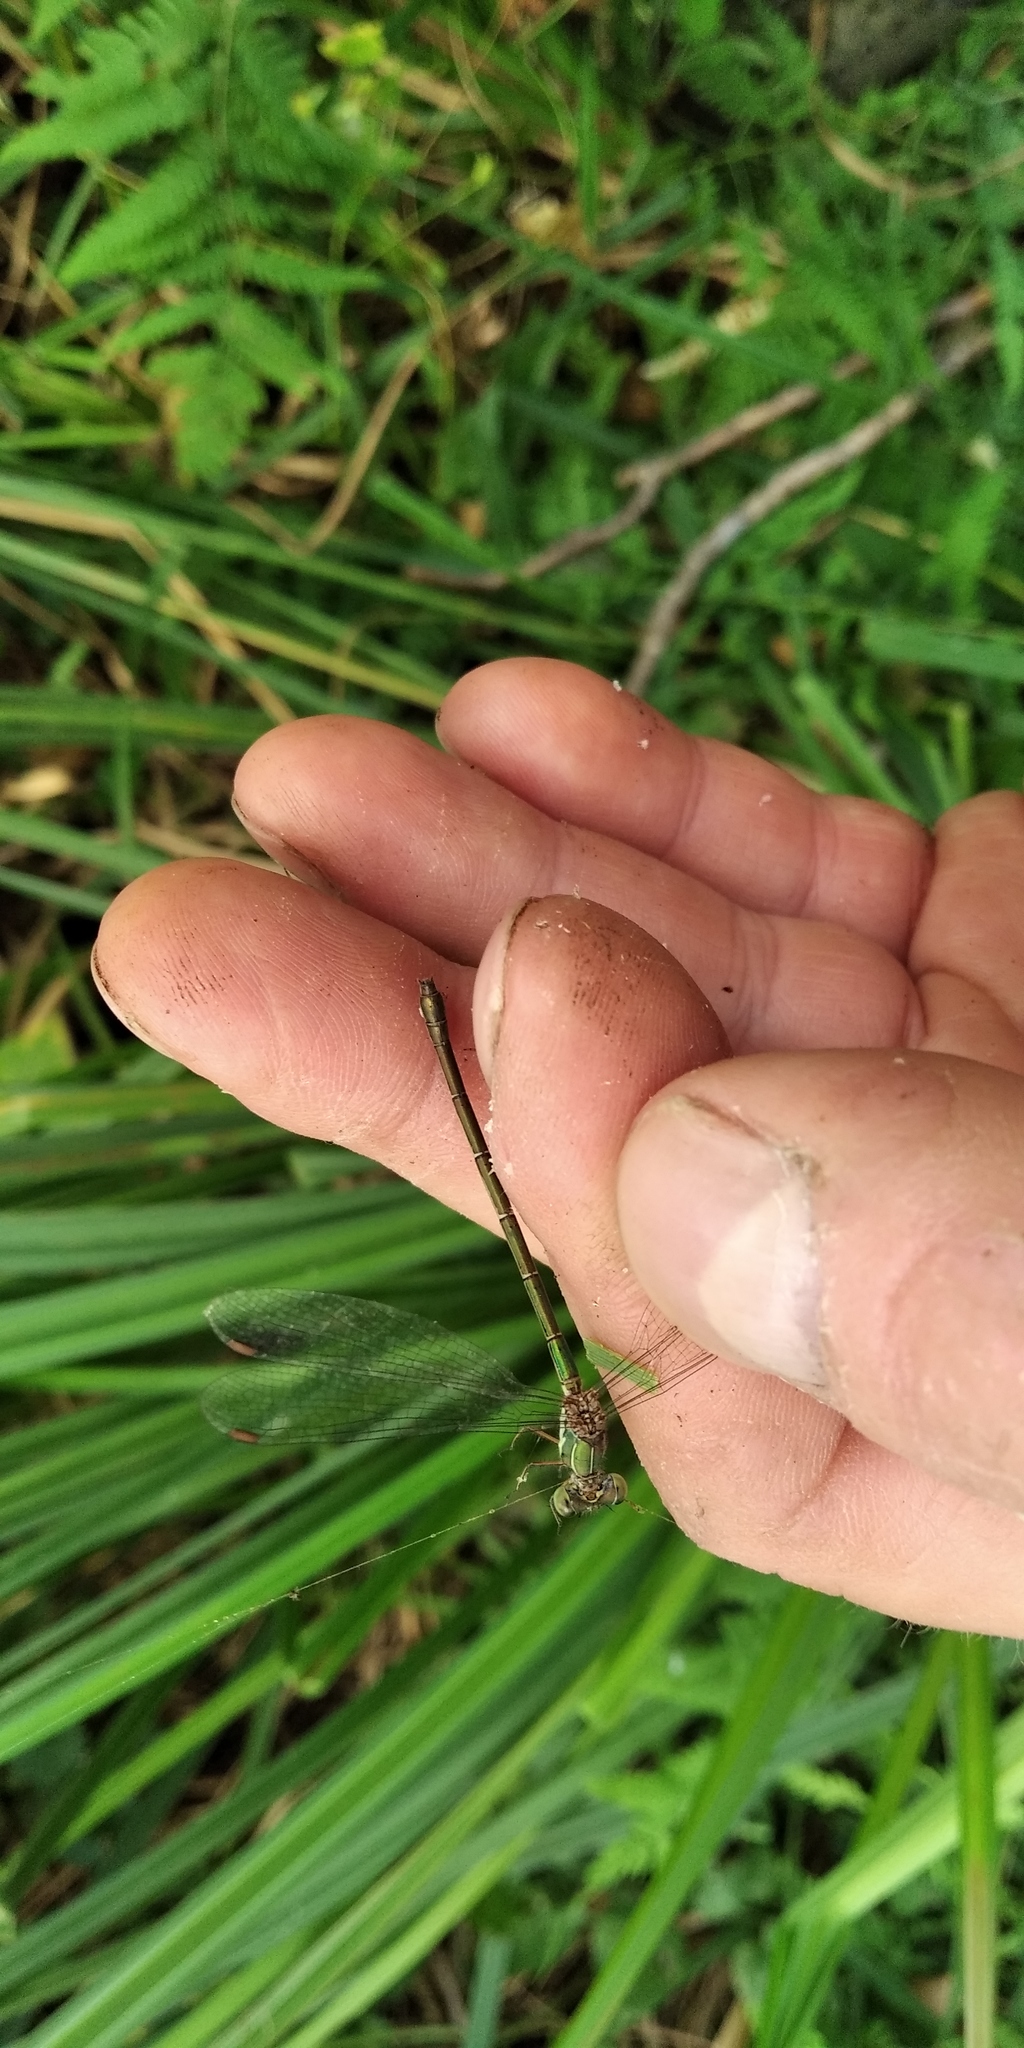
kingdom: Animalia
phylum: Arthropoda
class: Insecta
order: Odonata
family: Lestidae
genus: Chalcolestes
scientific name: Chalcolestes parvidens
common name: Eastern willow spreadwing
